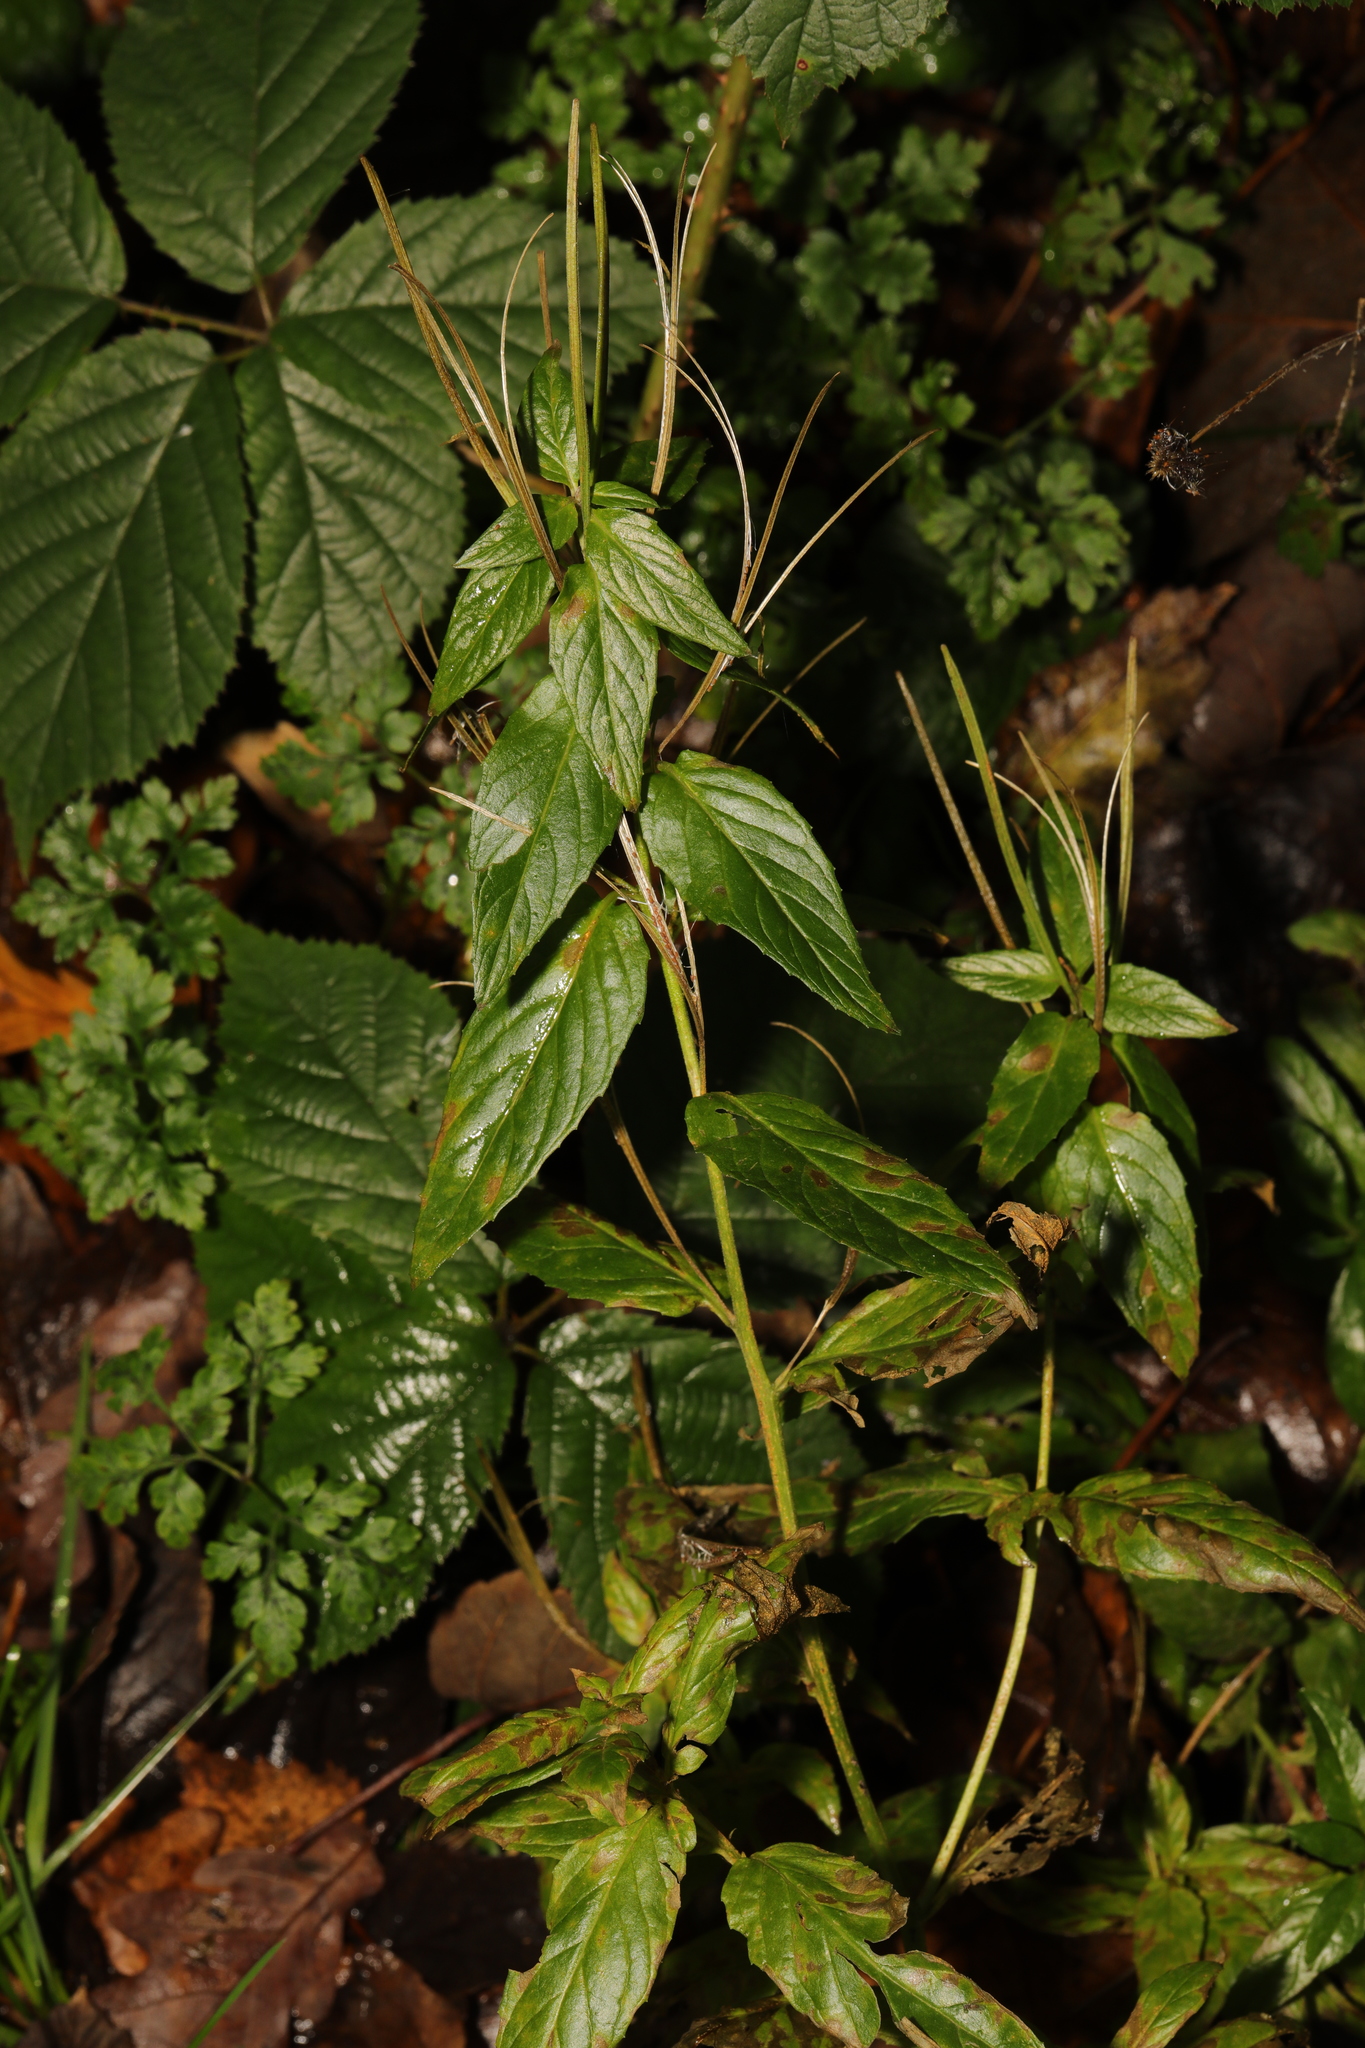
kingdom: Plantae
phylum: Tracheophyta
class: Magnoliopsida
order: Myrtales
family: Onagraceae
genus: Epilobium
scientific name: Epilobium montanum
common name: Broad-leaved willowherb
